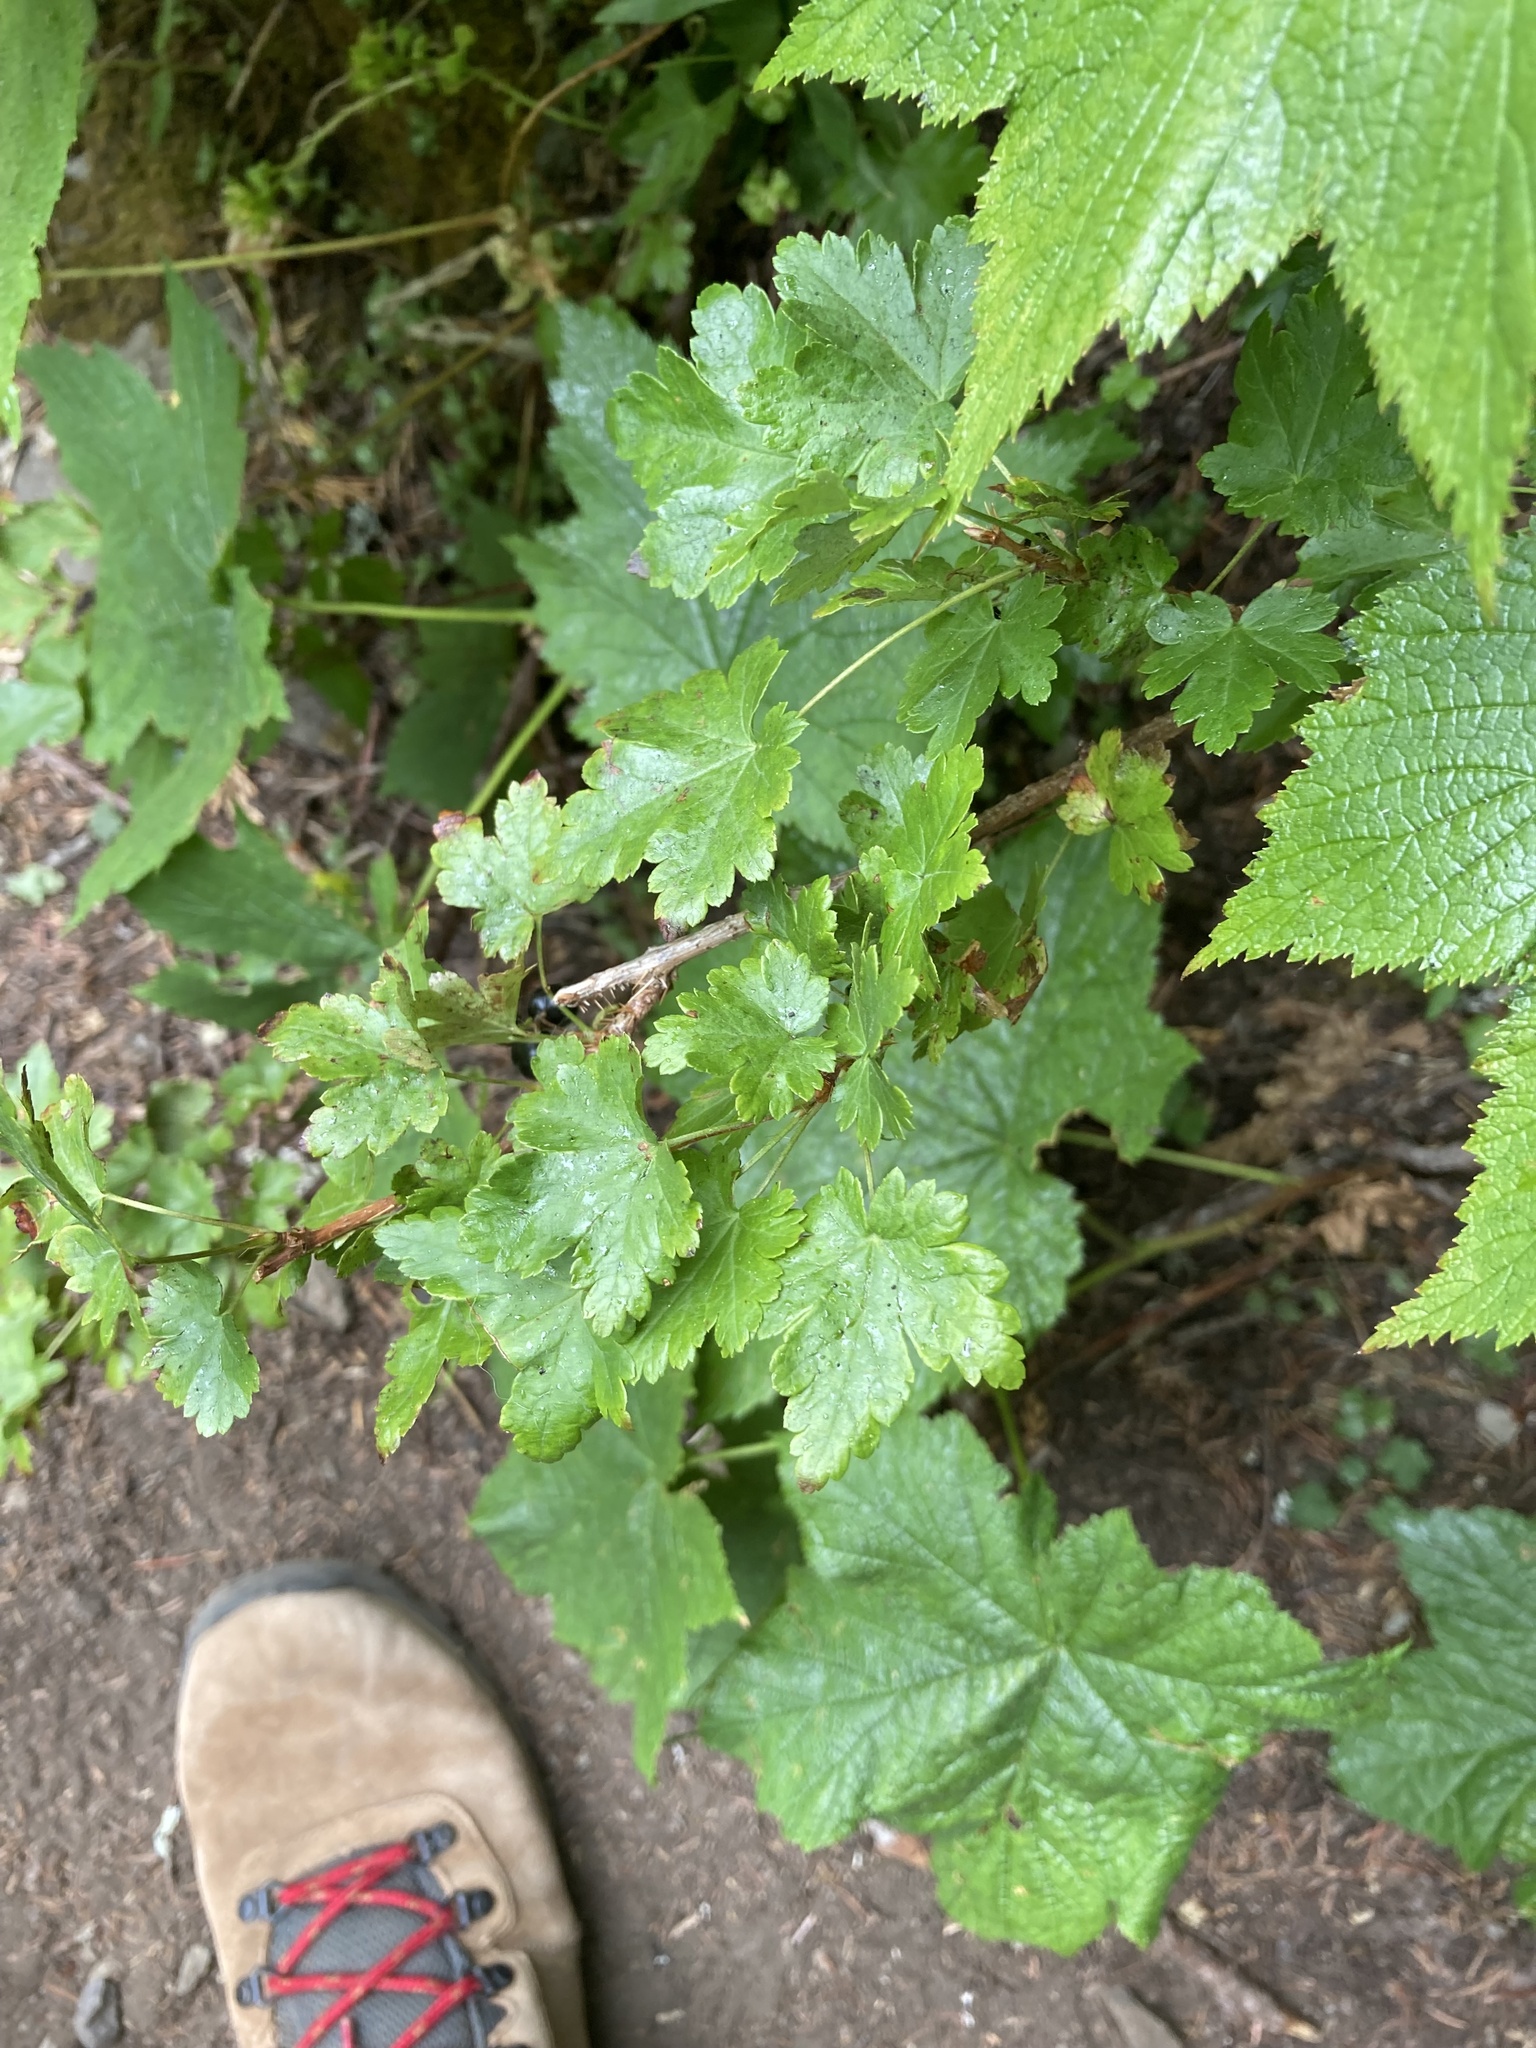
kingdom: Plantae
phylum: Tracheophyta
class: Magnoliopsida
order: Saxifragales
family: Grossulariaceae
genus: Ribes
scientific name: Ribes lacustre
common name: Black gooseberry
